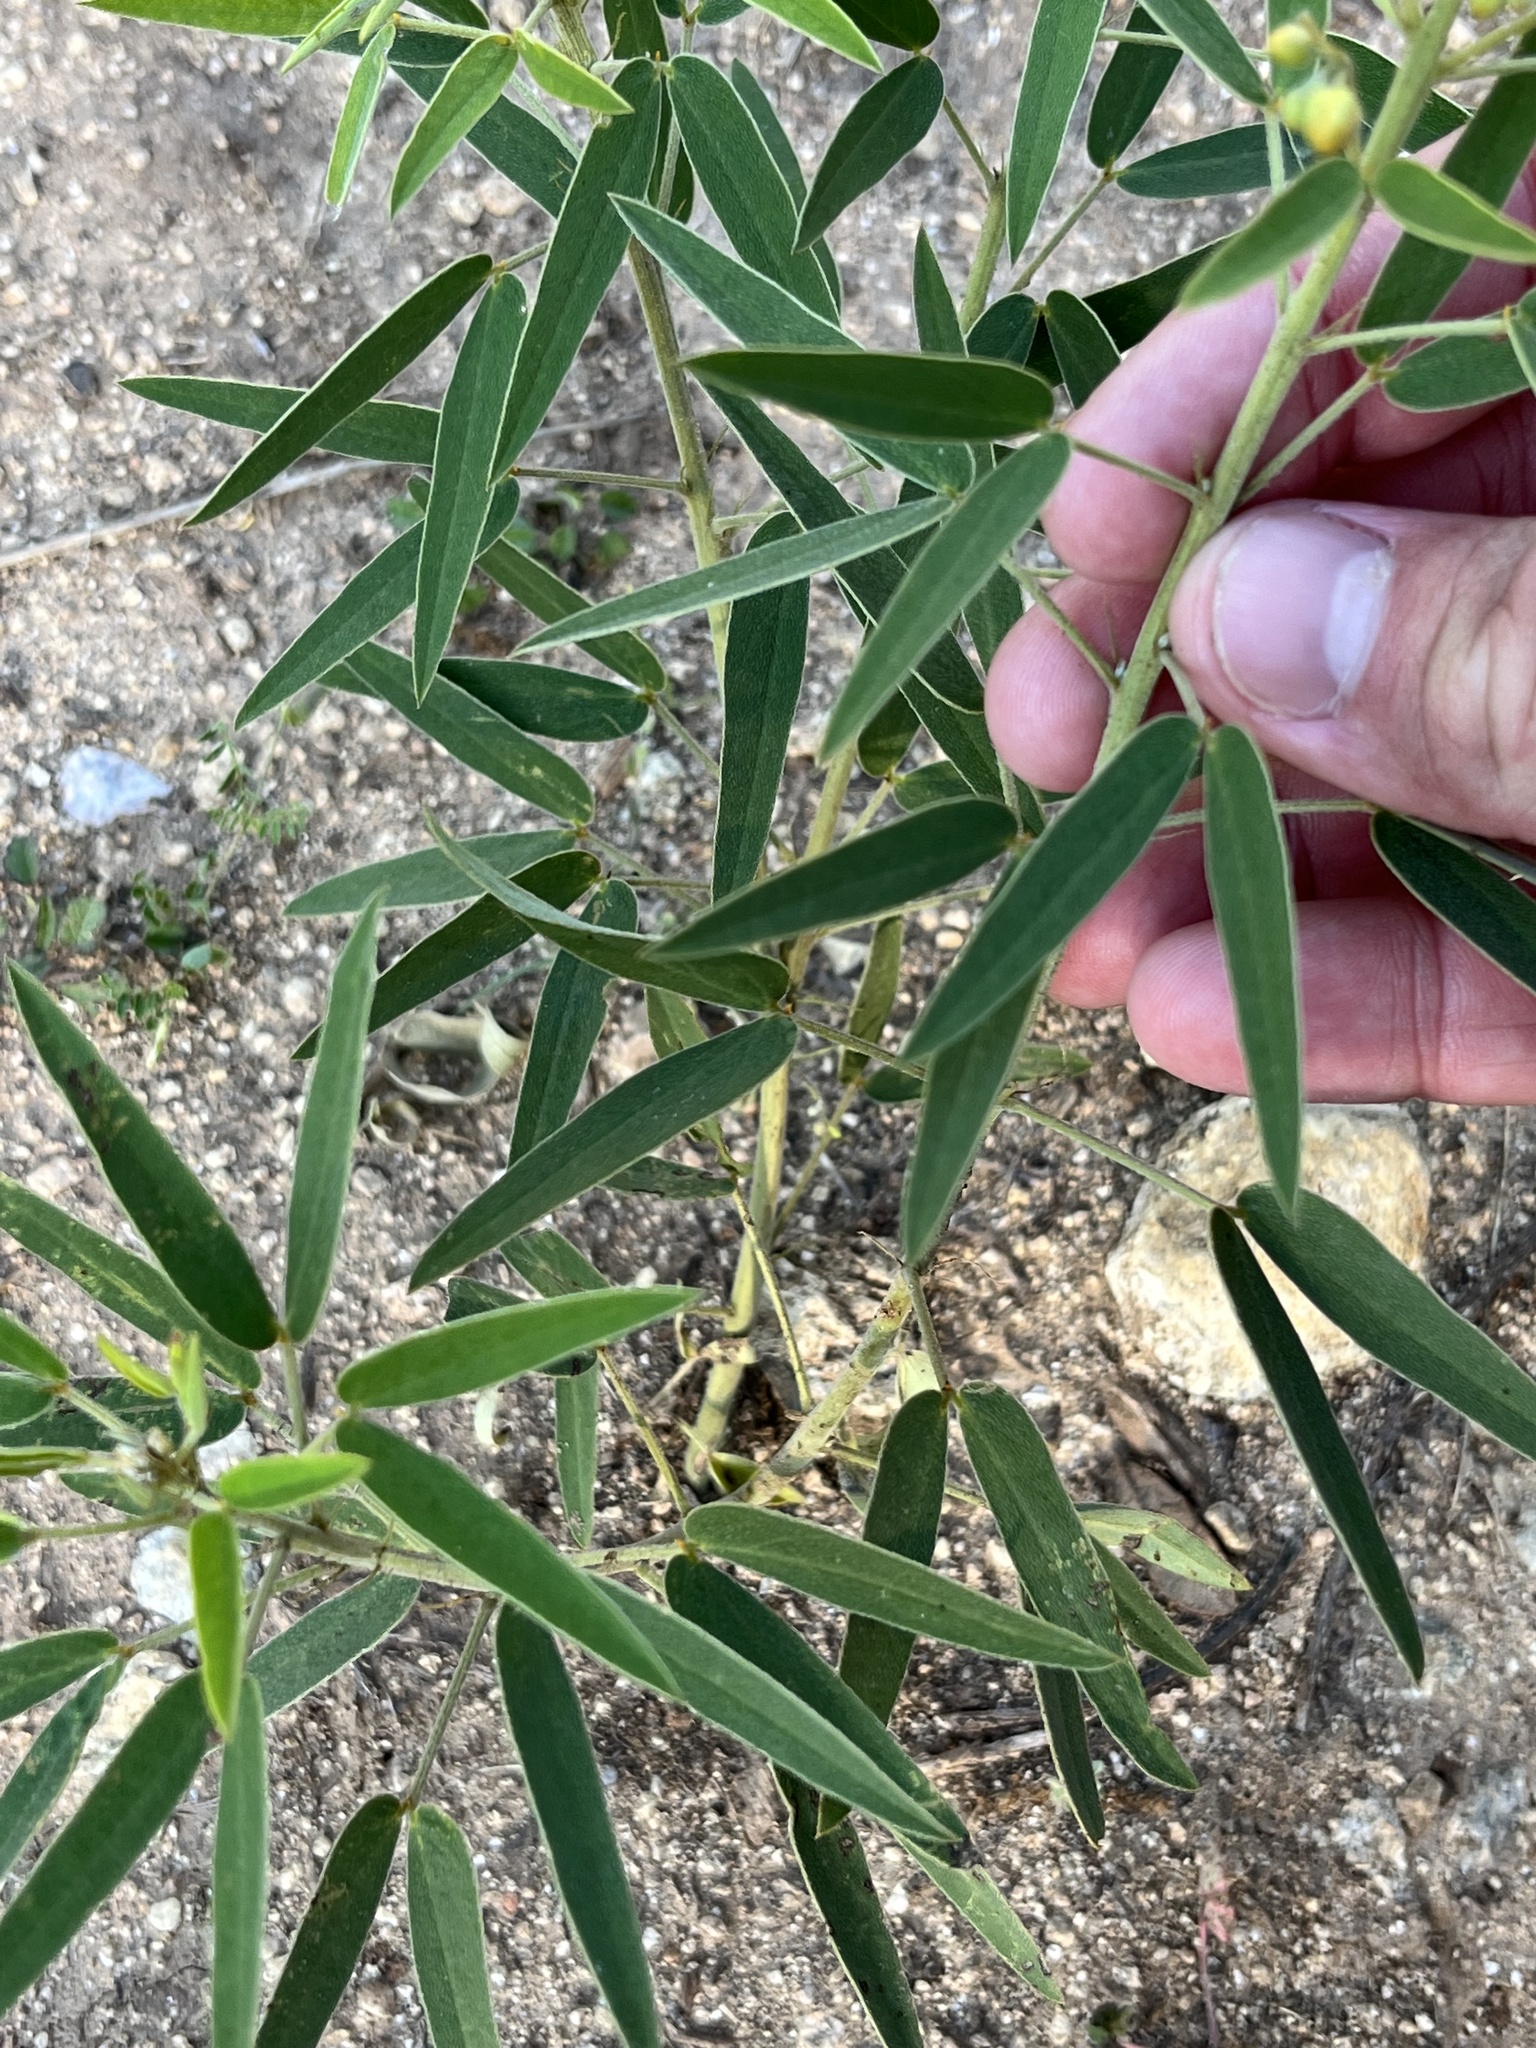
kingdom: Plantae
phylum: Tracheophyta
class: Magnoliopsida
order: Fabales
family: Fabaceae
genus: Senna
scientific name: Senna roemeriana
